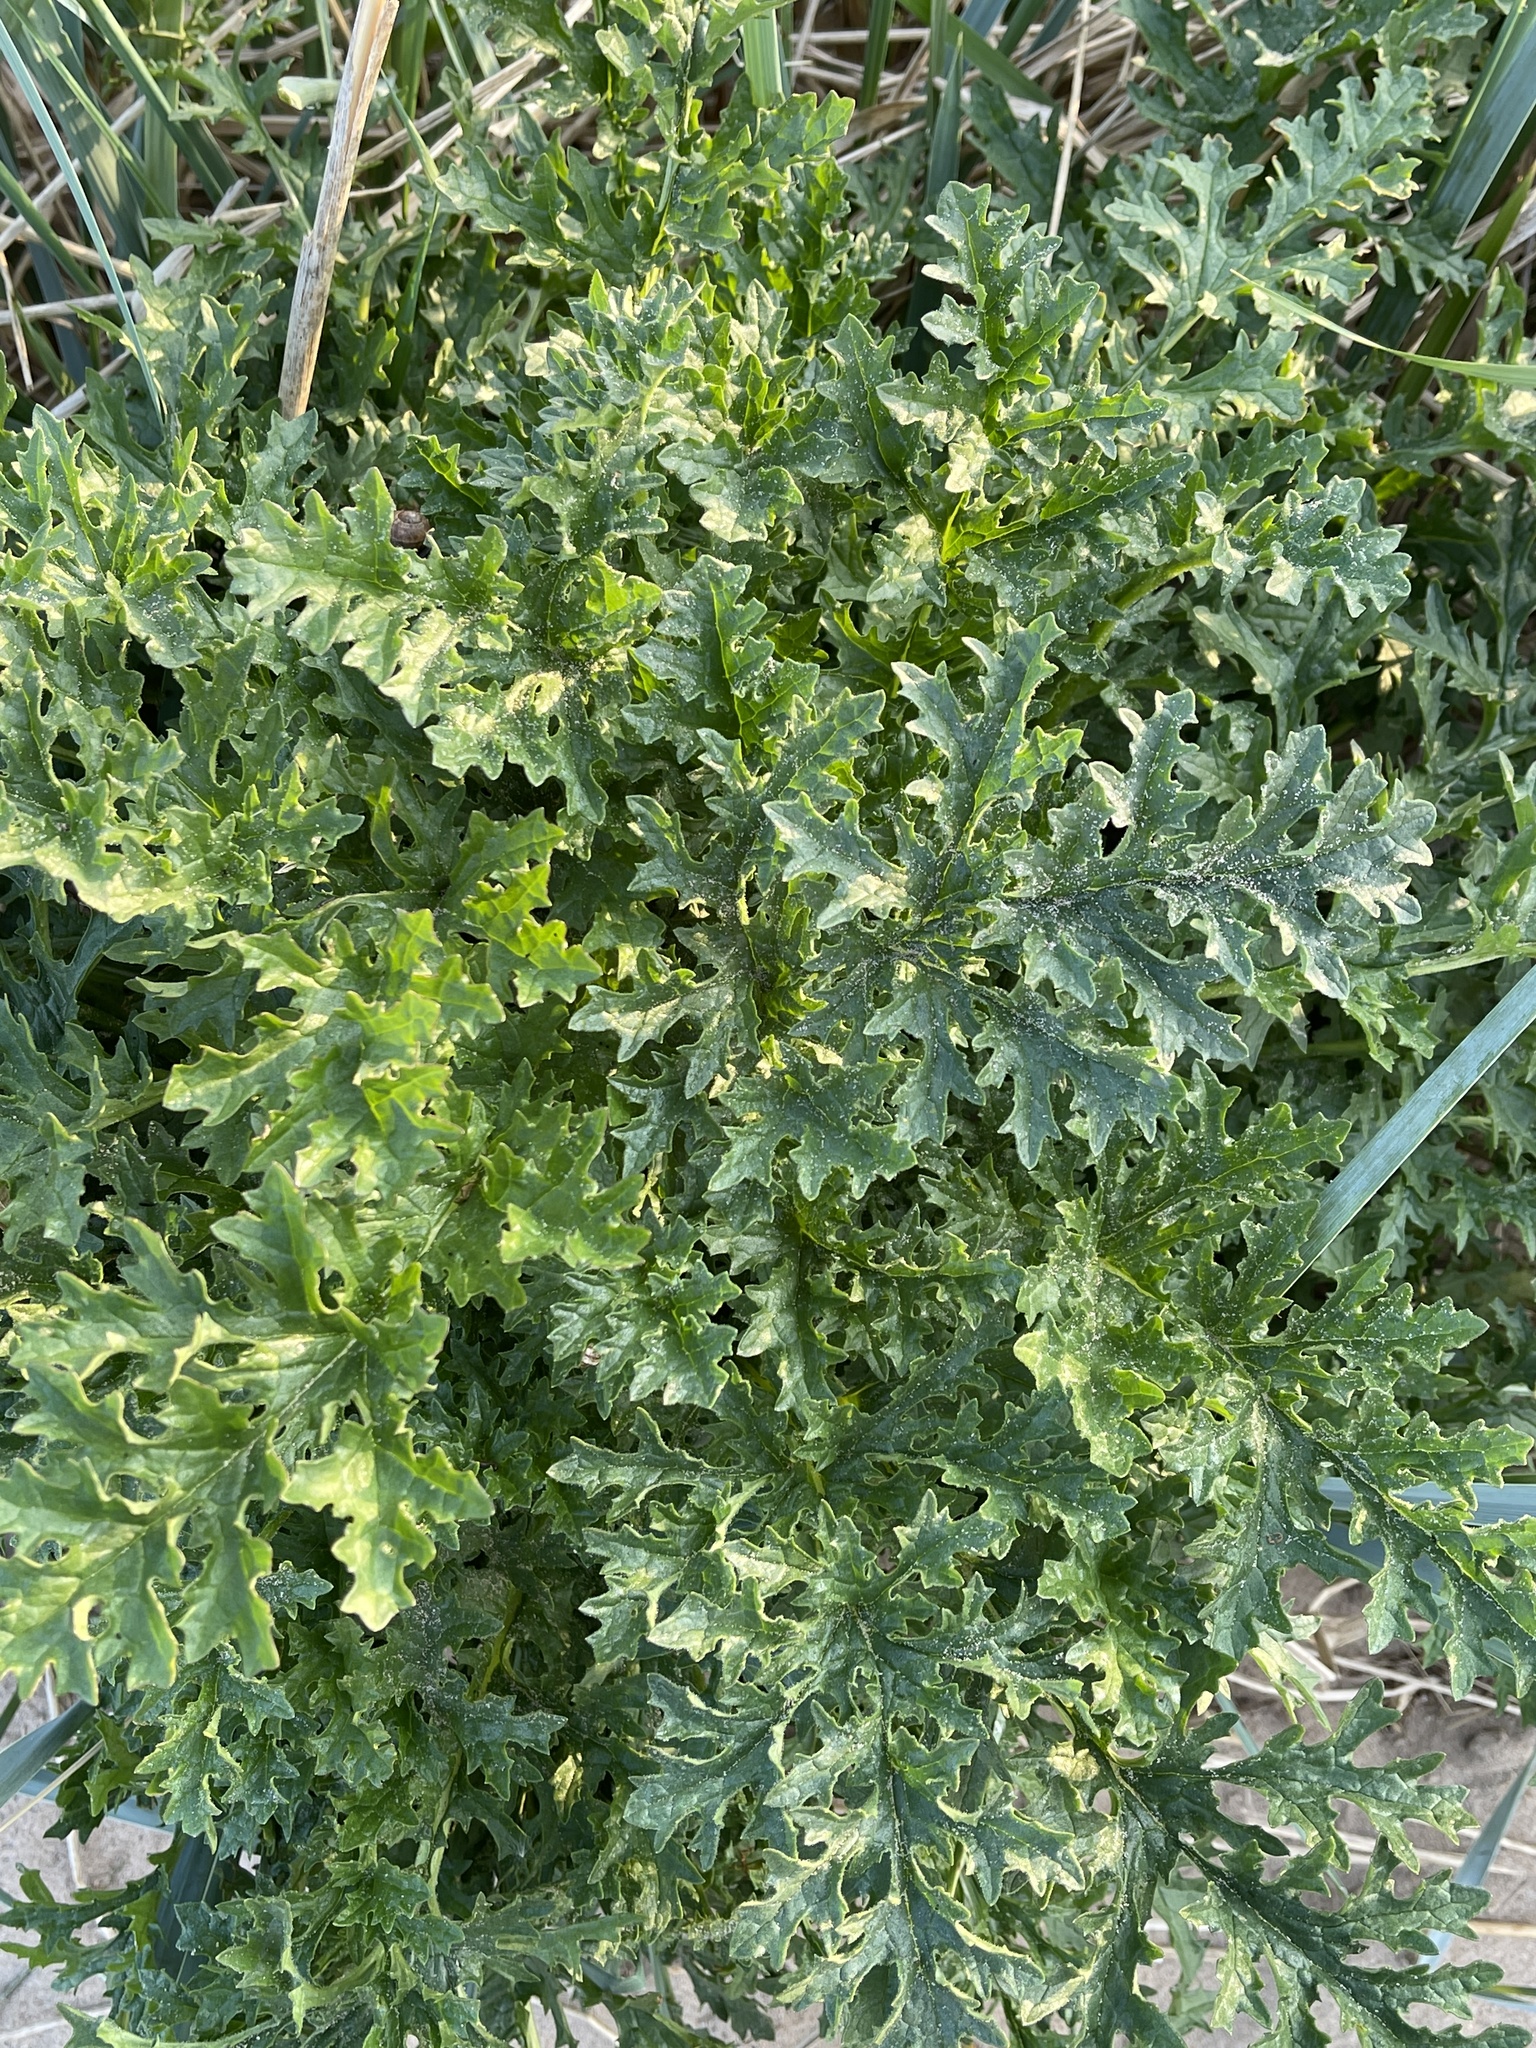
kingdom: Plantae
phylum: Tracheophyta
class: Magnoliopsida
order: Asterales
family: Asteraceae
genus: Jacobaea
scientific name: Jacobaea vulgaris
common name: Stinking willie
